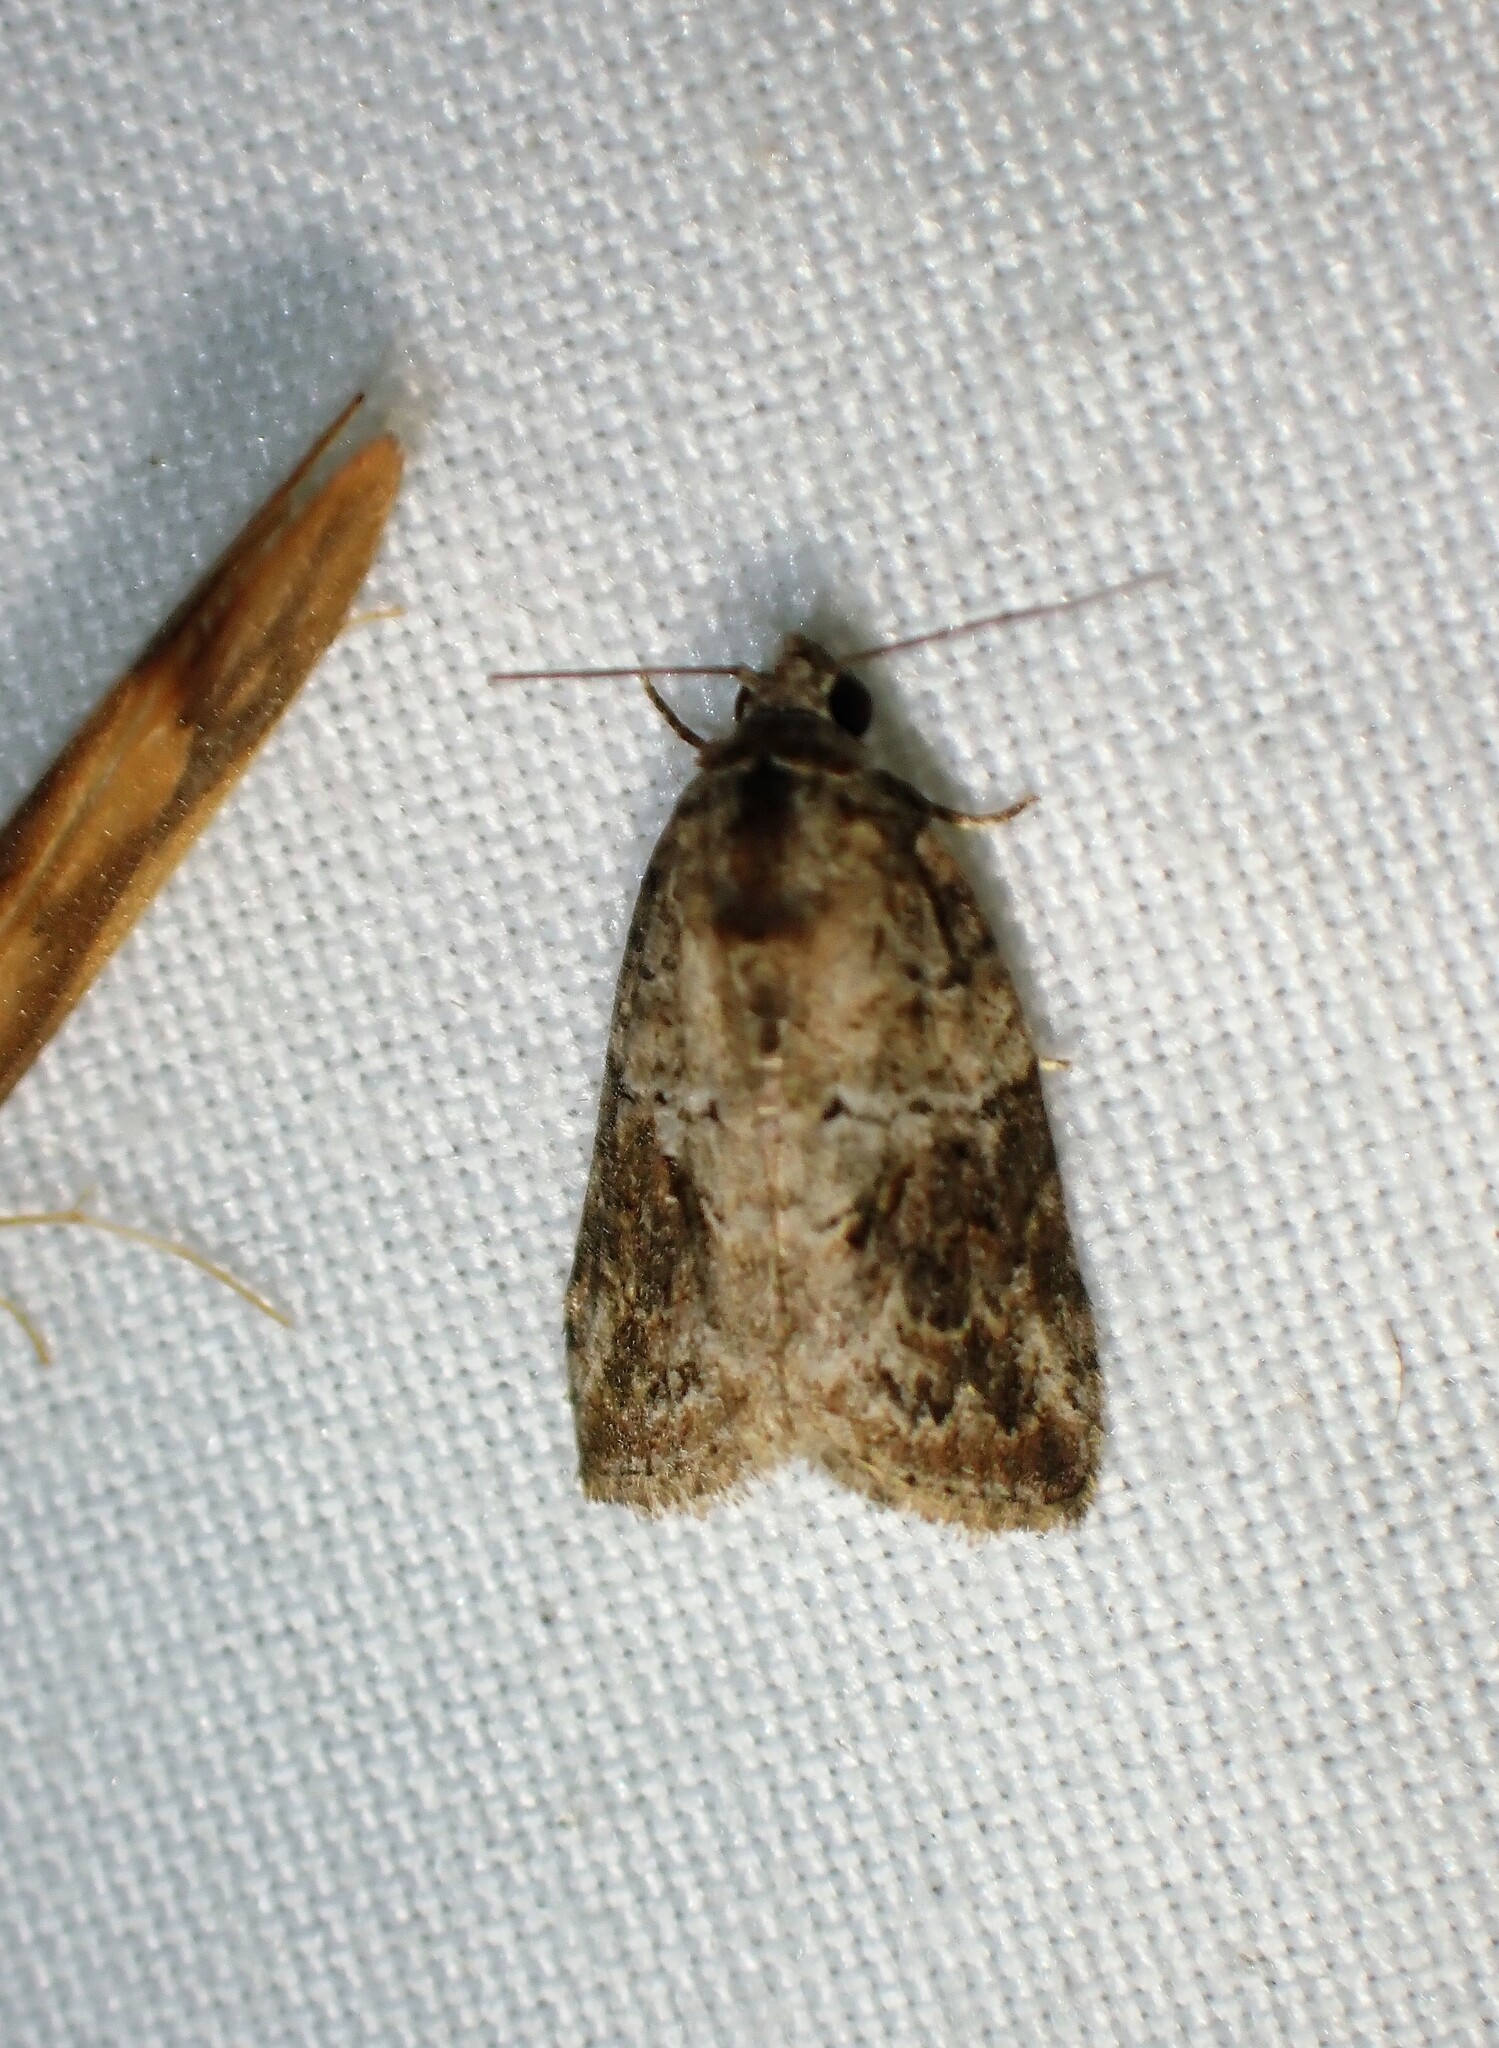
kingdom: Animalia
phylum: Arthropoda
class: Insecta
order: Lepidoptera
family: Nolidae
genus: Garella
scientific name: Garella nilotica
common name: Black-olive caterpillar moth
